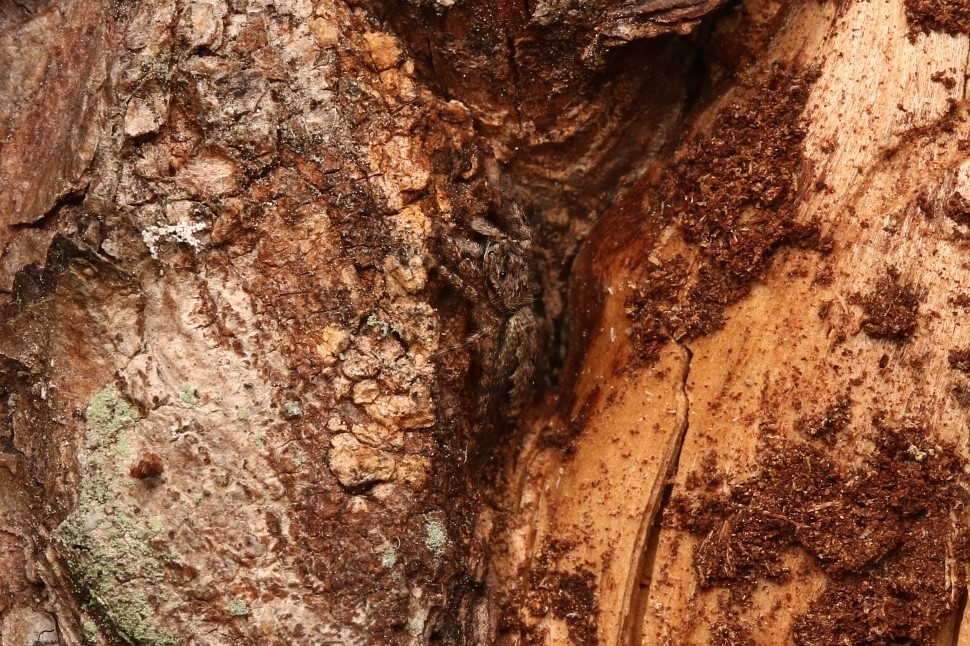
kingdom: Animalia
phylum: Arthropoda
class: Arachnida
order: Araneae
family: Salticidae
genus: Platycryptus
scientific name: Platycryptus undatus
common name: Tan jumping spider
